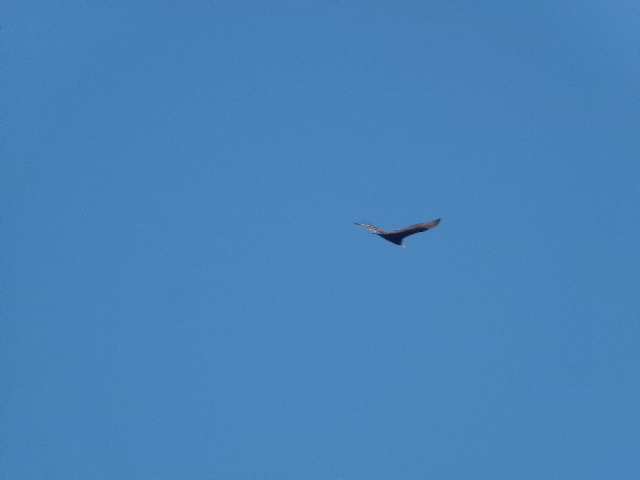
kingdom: Animalia
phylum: Chordata
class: Aves
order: Accipitriformes
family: Cathartidae
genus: Cathartes
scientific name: Cathartes aura
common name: Turkey vulture
